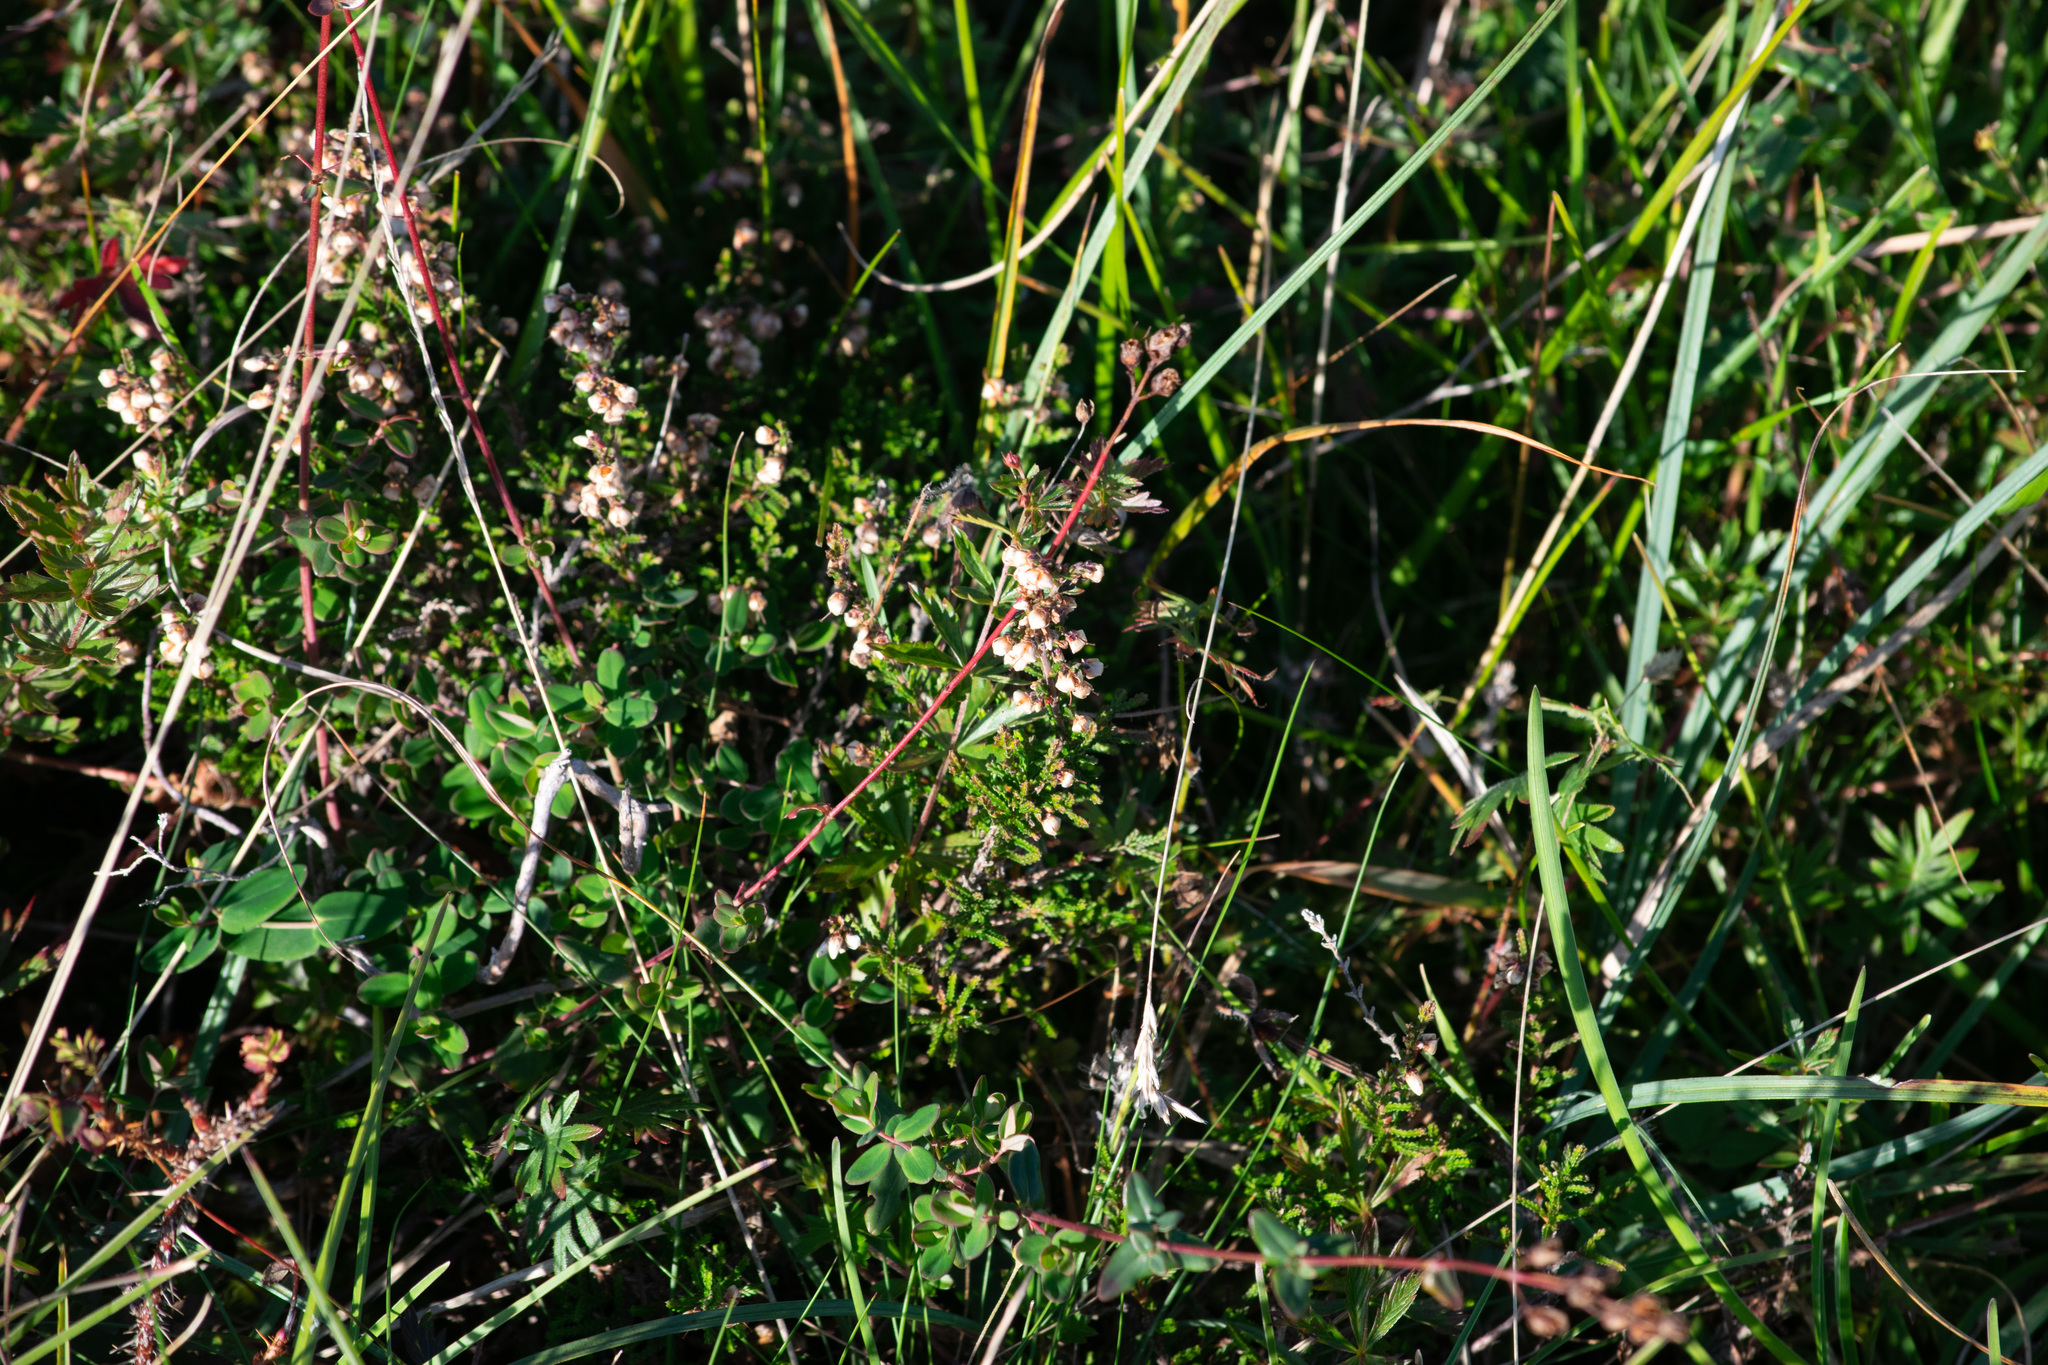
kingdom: Plantae
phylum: Tracheophyta
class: Magnoliopsida
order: Ericales
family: Ericaceae
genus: Calluna
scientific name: Calluna vulgaris
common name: Heather
